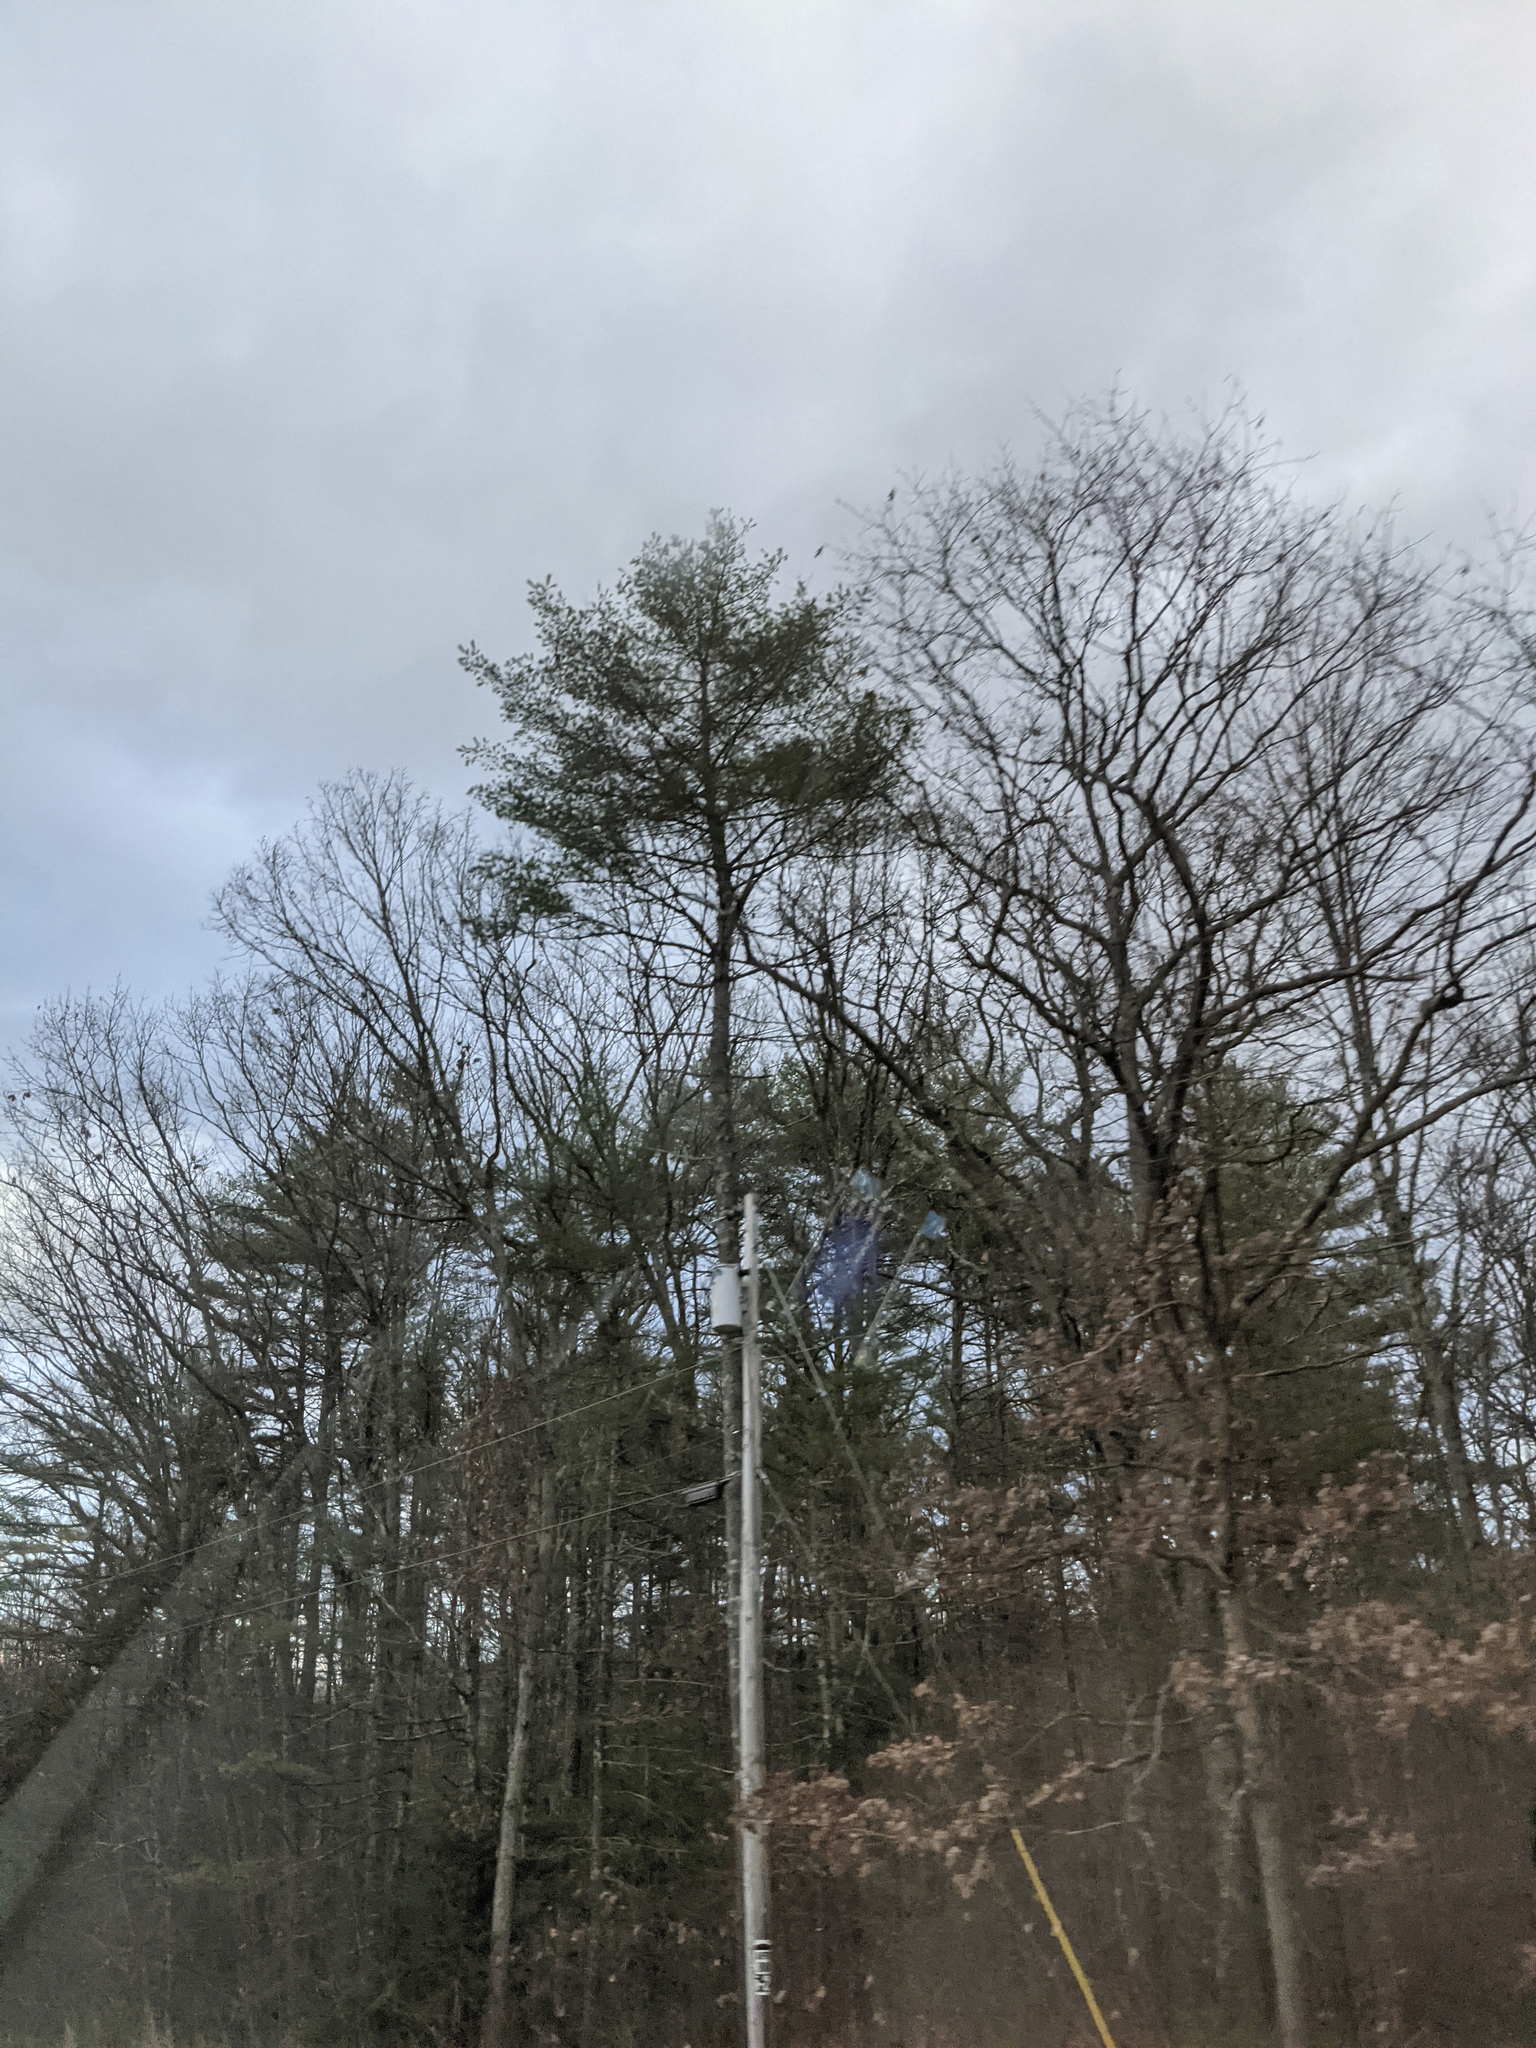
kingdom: Plantae
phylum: Tracheophyta
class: Pinopsida
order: Pinales
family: Pinaceae
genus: Pinus
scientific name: Pinus strobus
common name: Weymouth pine
